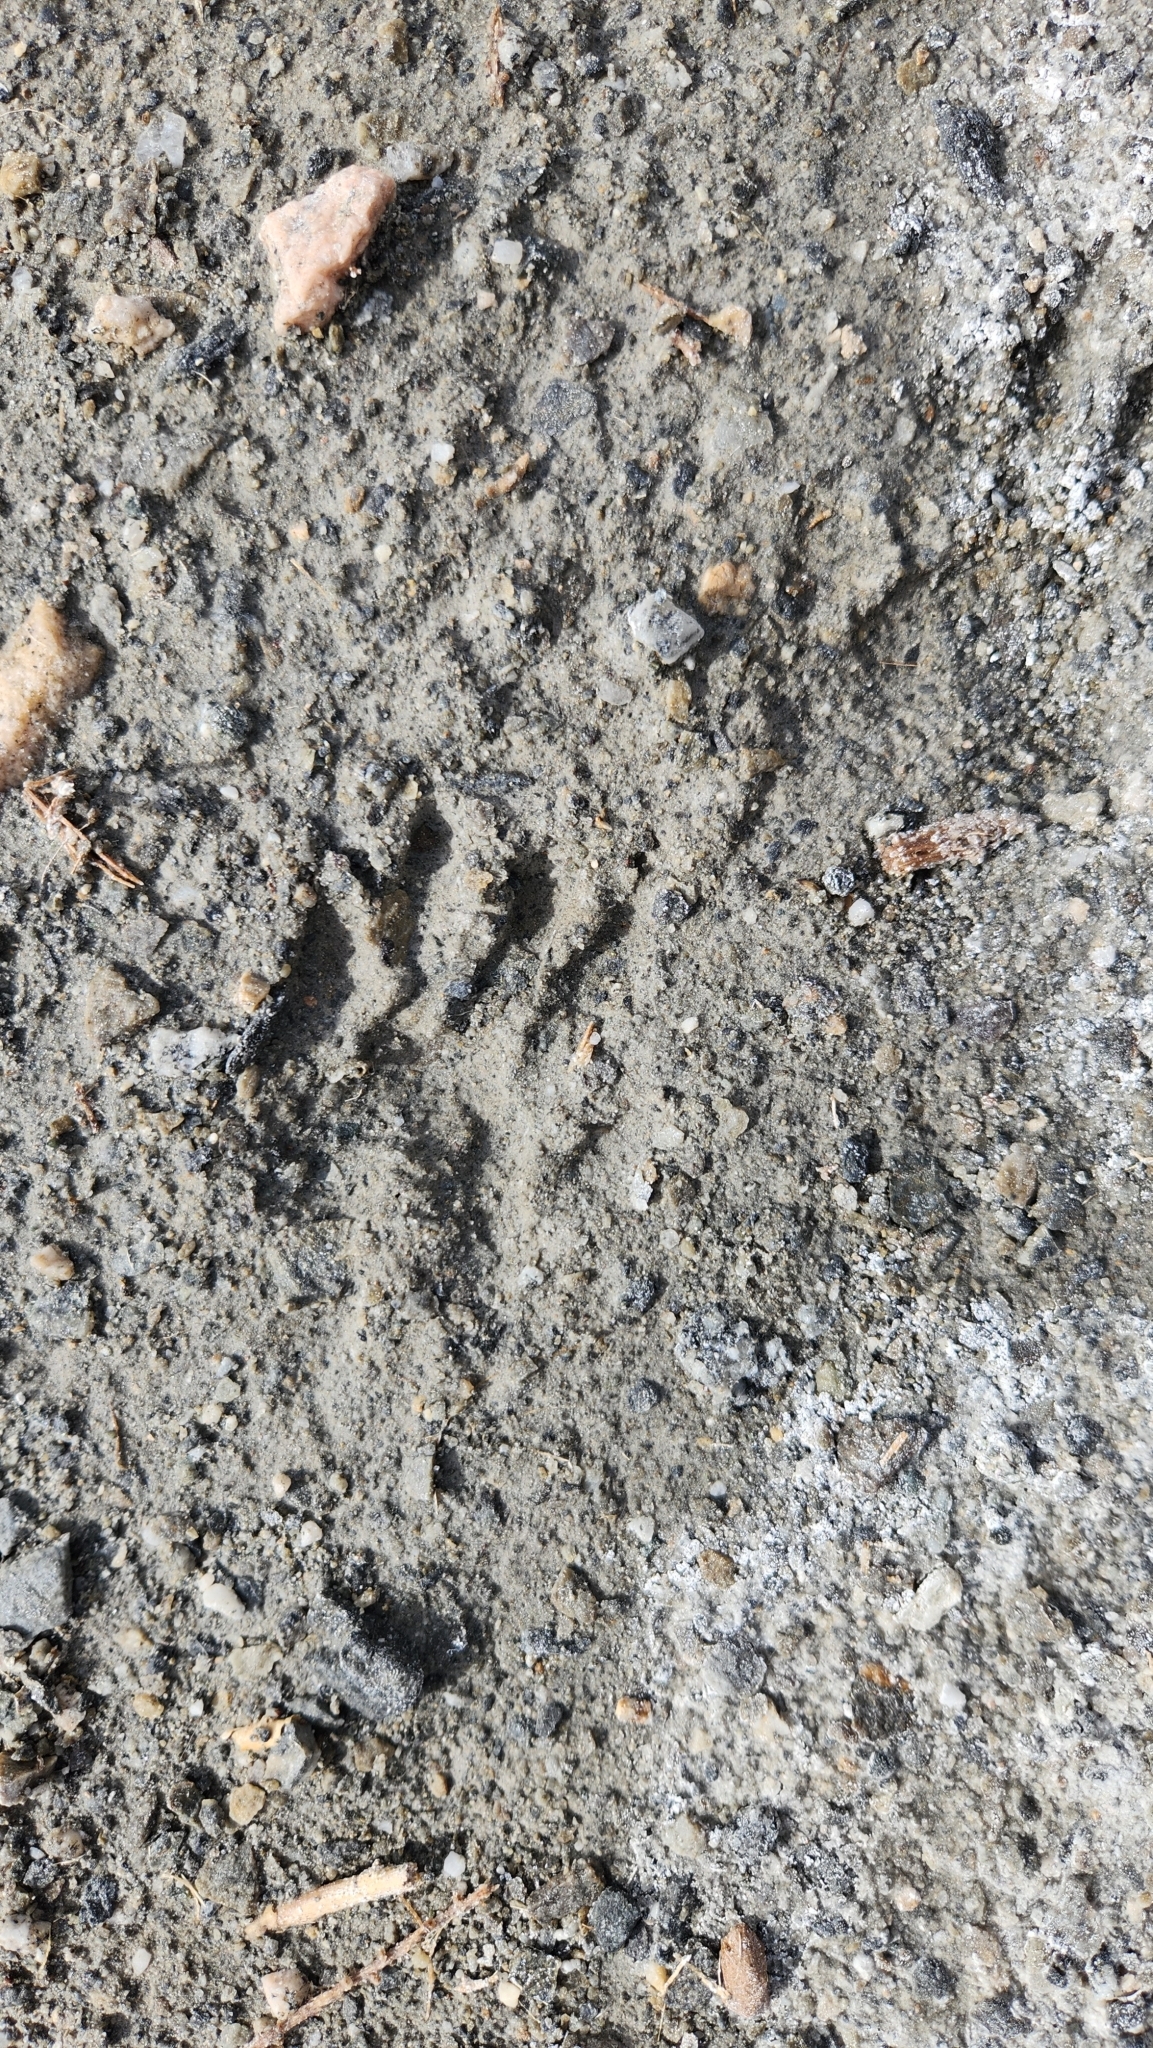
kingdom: Animalia
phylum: Chordata
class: Mammalia
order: Carnivora
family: Procyonidae
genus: Procyon
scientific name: Procyon lotor
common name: Raccoon
